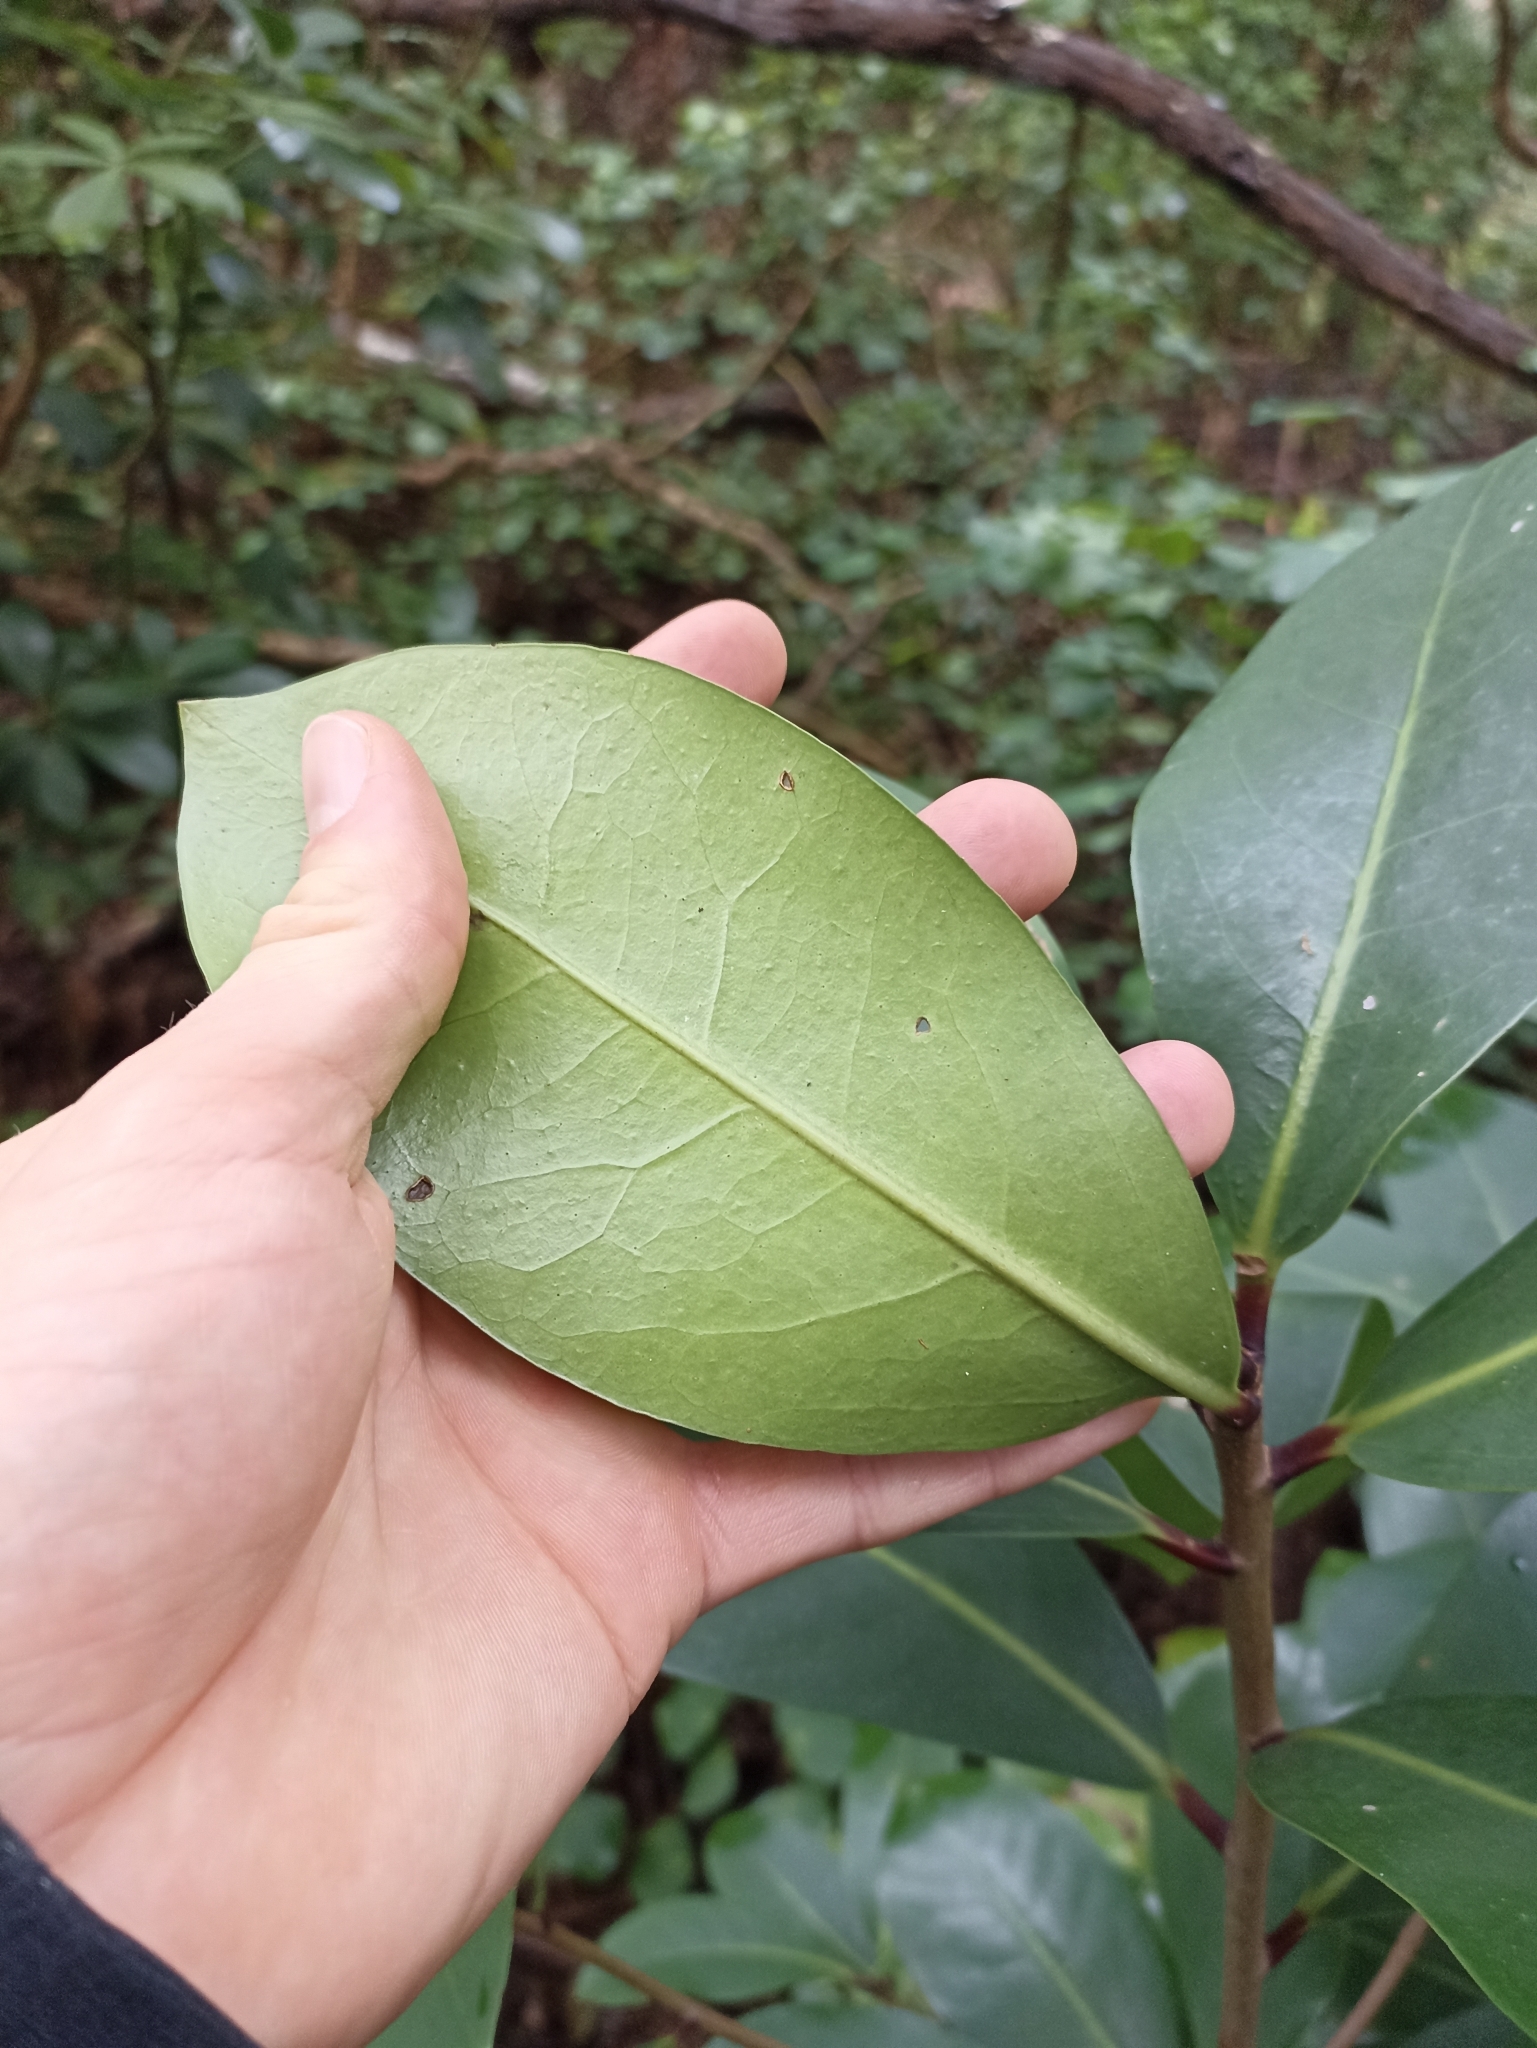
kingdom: Plantae
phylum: Tracheophyta
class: Magnoliopsida
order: Cucurbitales
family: Corynocarpaceae
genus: Corynocarpus
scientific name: Corynocarpus laevigatus
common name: New zealand laurel
